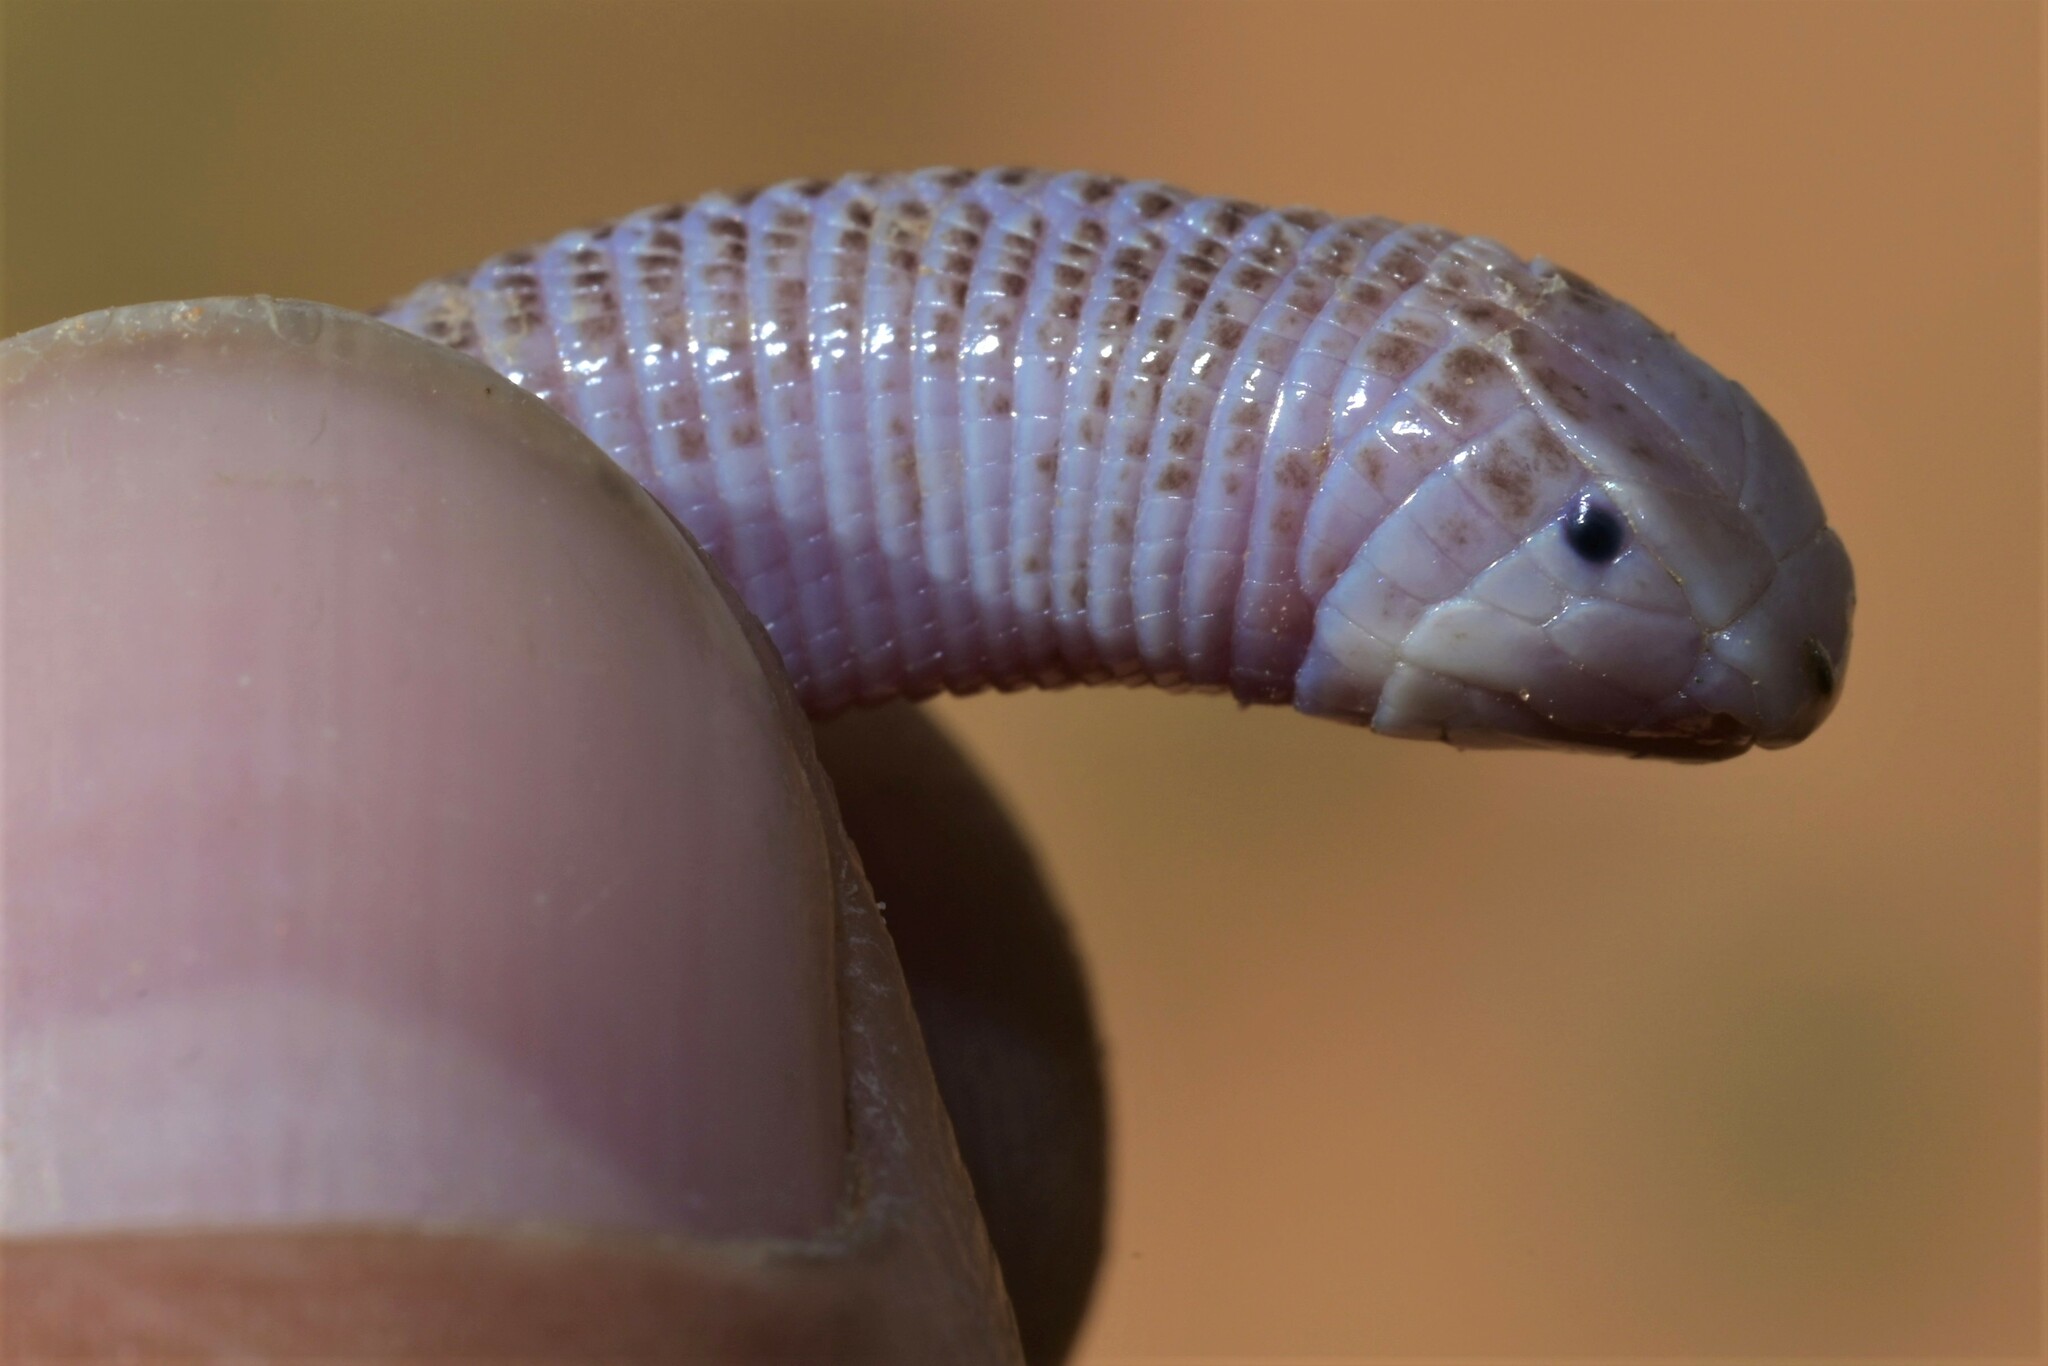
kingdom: Animalia
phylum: Chordata
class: Squamata
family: Trogonophidae
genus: Diplometopon
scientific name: Diplometopon zarudnyi
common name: Zarudnyi's worm lizard
